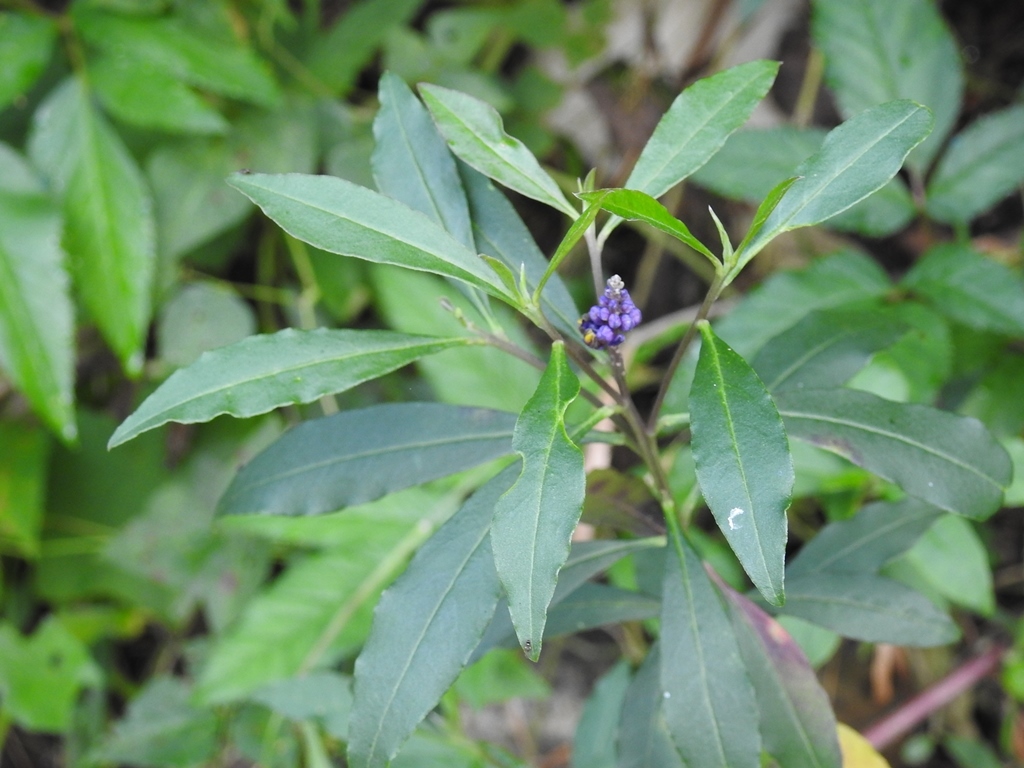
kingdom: Plantae
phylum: Tracheophyta
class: Magnoliopsida
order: Fabales
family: Polygalaceae
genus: Monnina
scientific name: Monnina xalapensis
